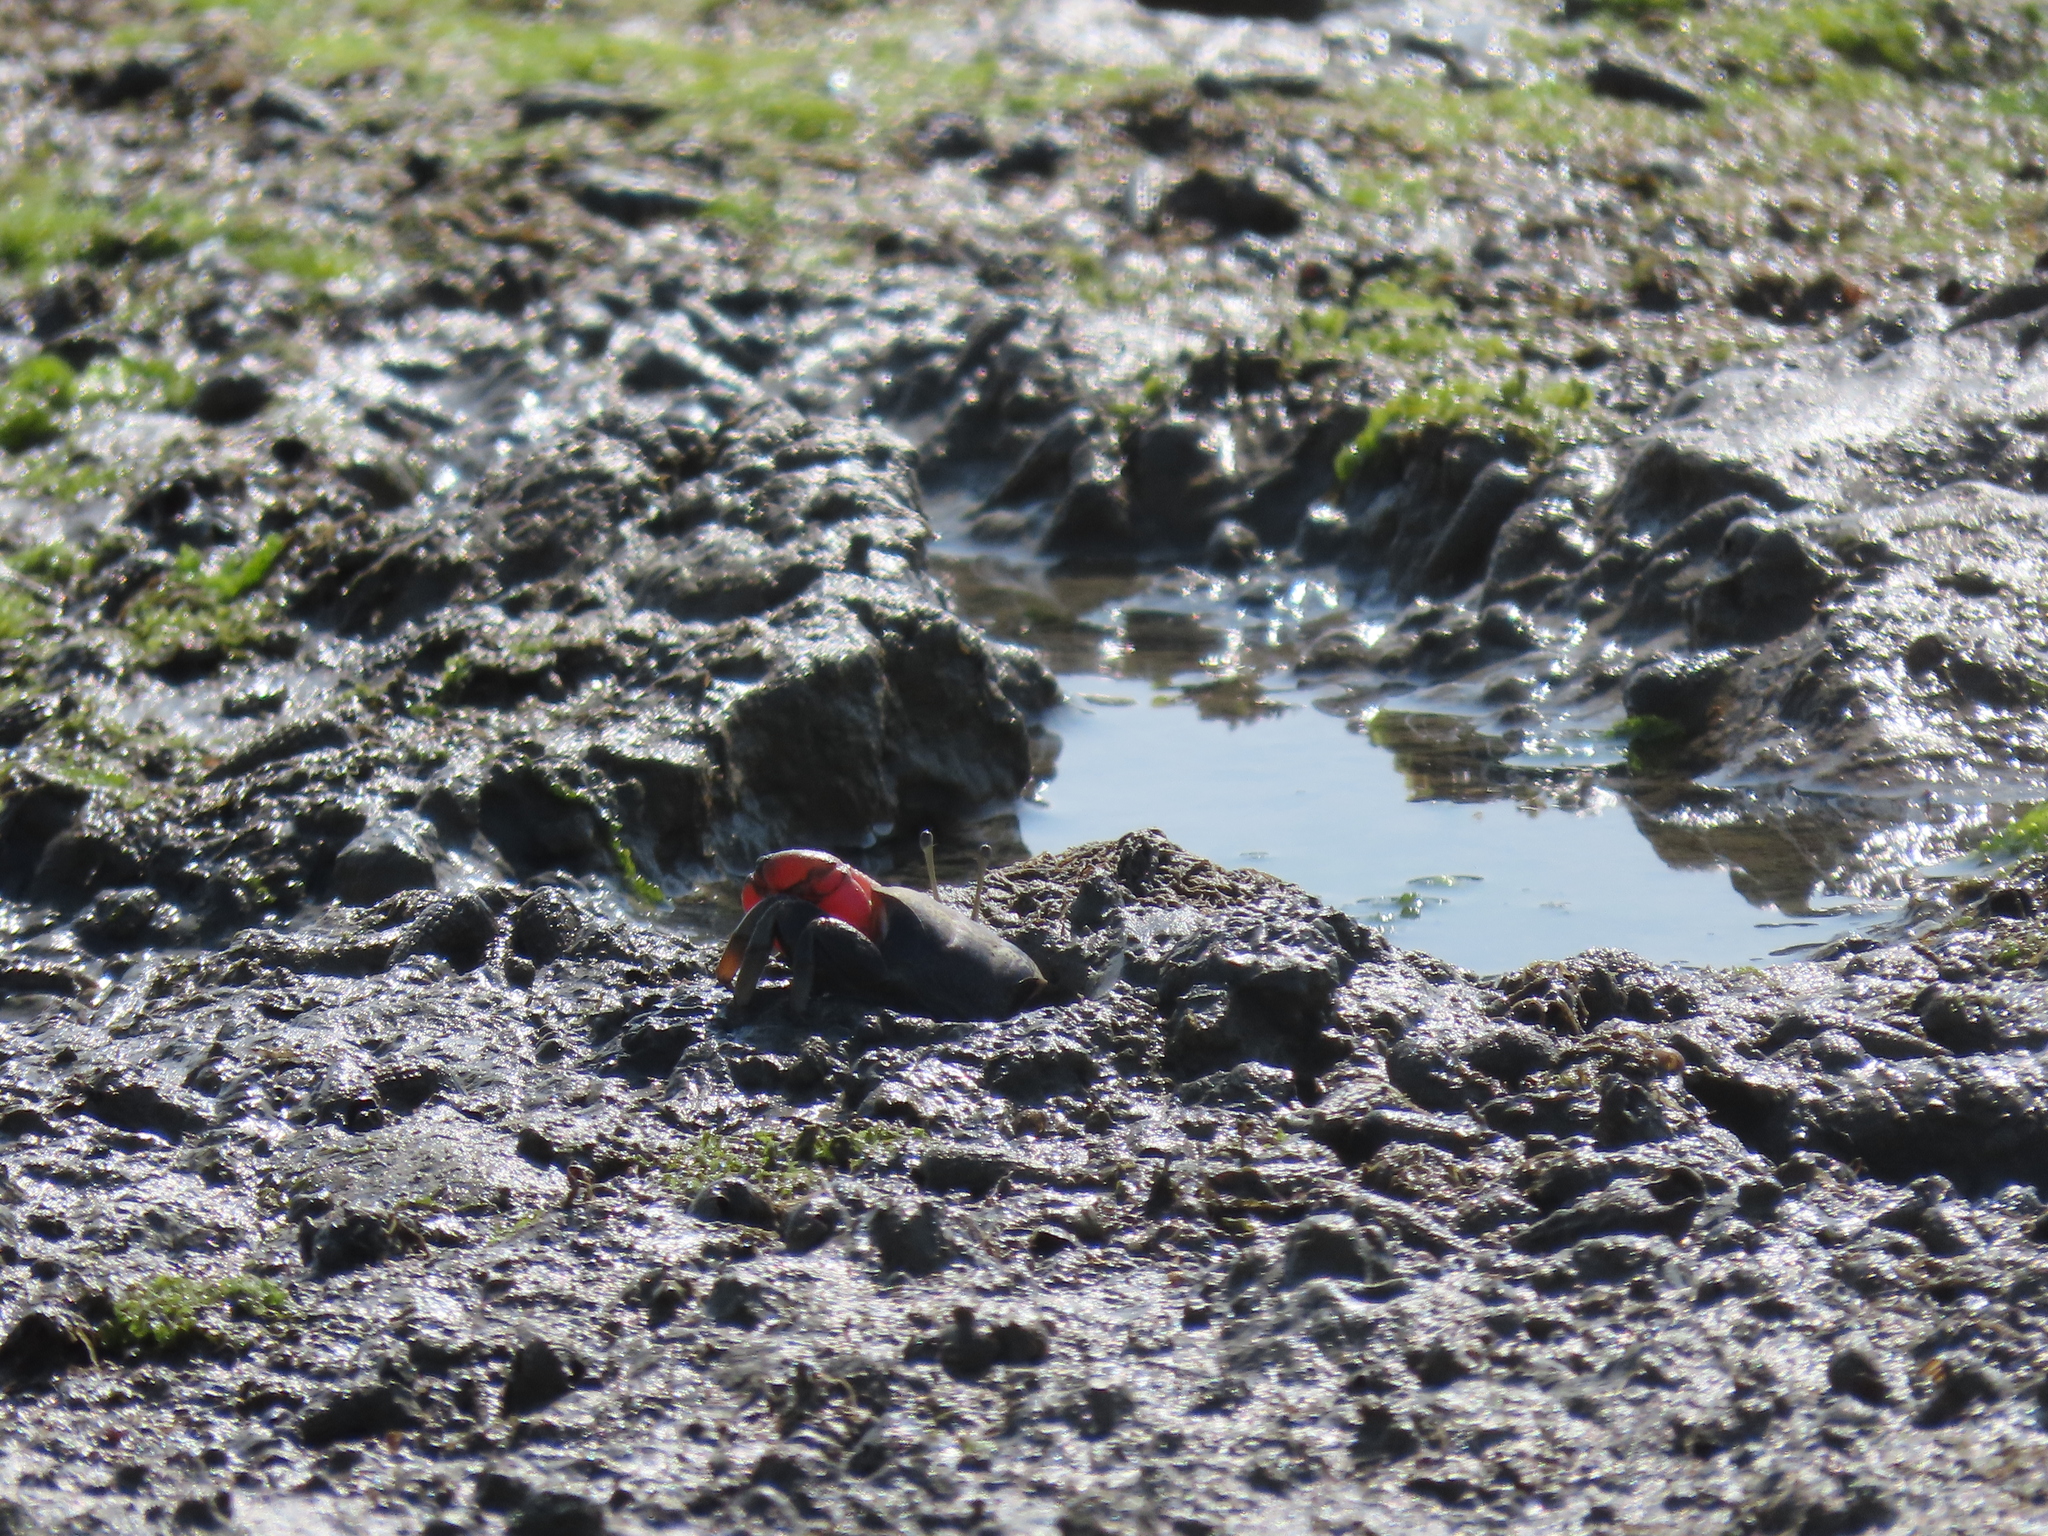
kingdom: Animalia
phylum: Arthropoda
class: Malacostraca
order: Decapoda
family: Ocypodidae
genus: Tubuca
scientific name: Tubuca arcuata
